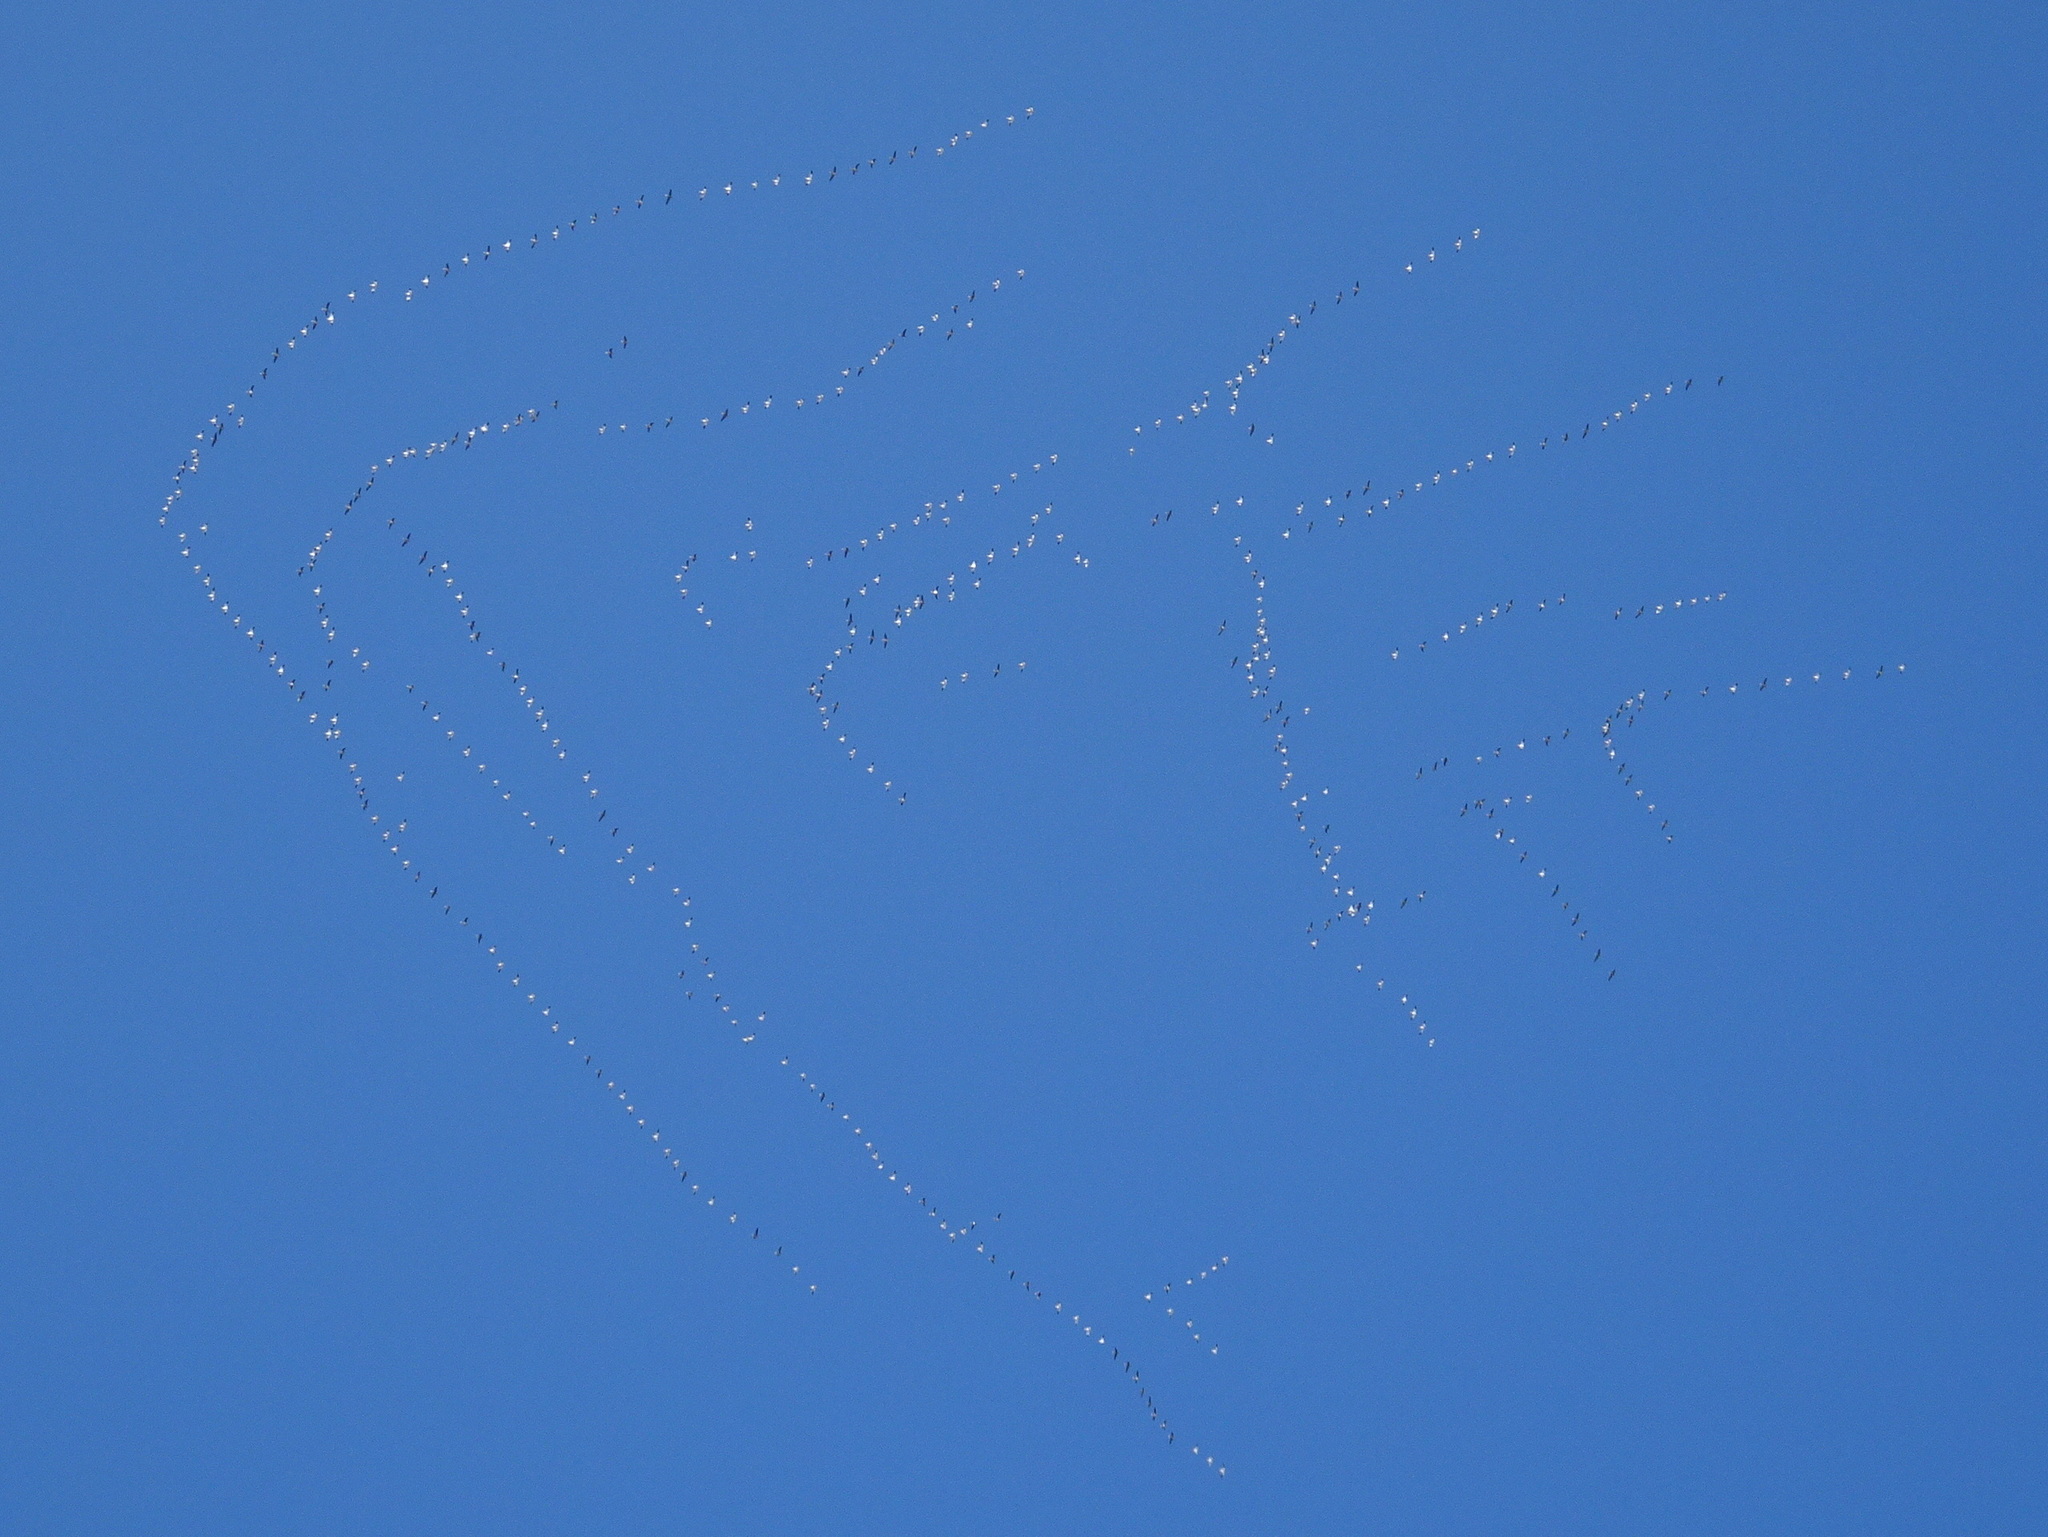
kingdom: Animalia
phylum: Chordata
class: Aves
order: Anseriformes
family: Anatidae
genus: Anser
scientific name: Anser caerulescens
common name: Snow goose
